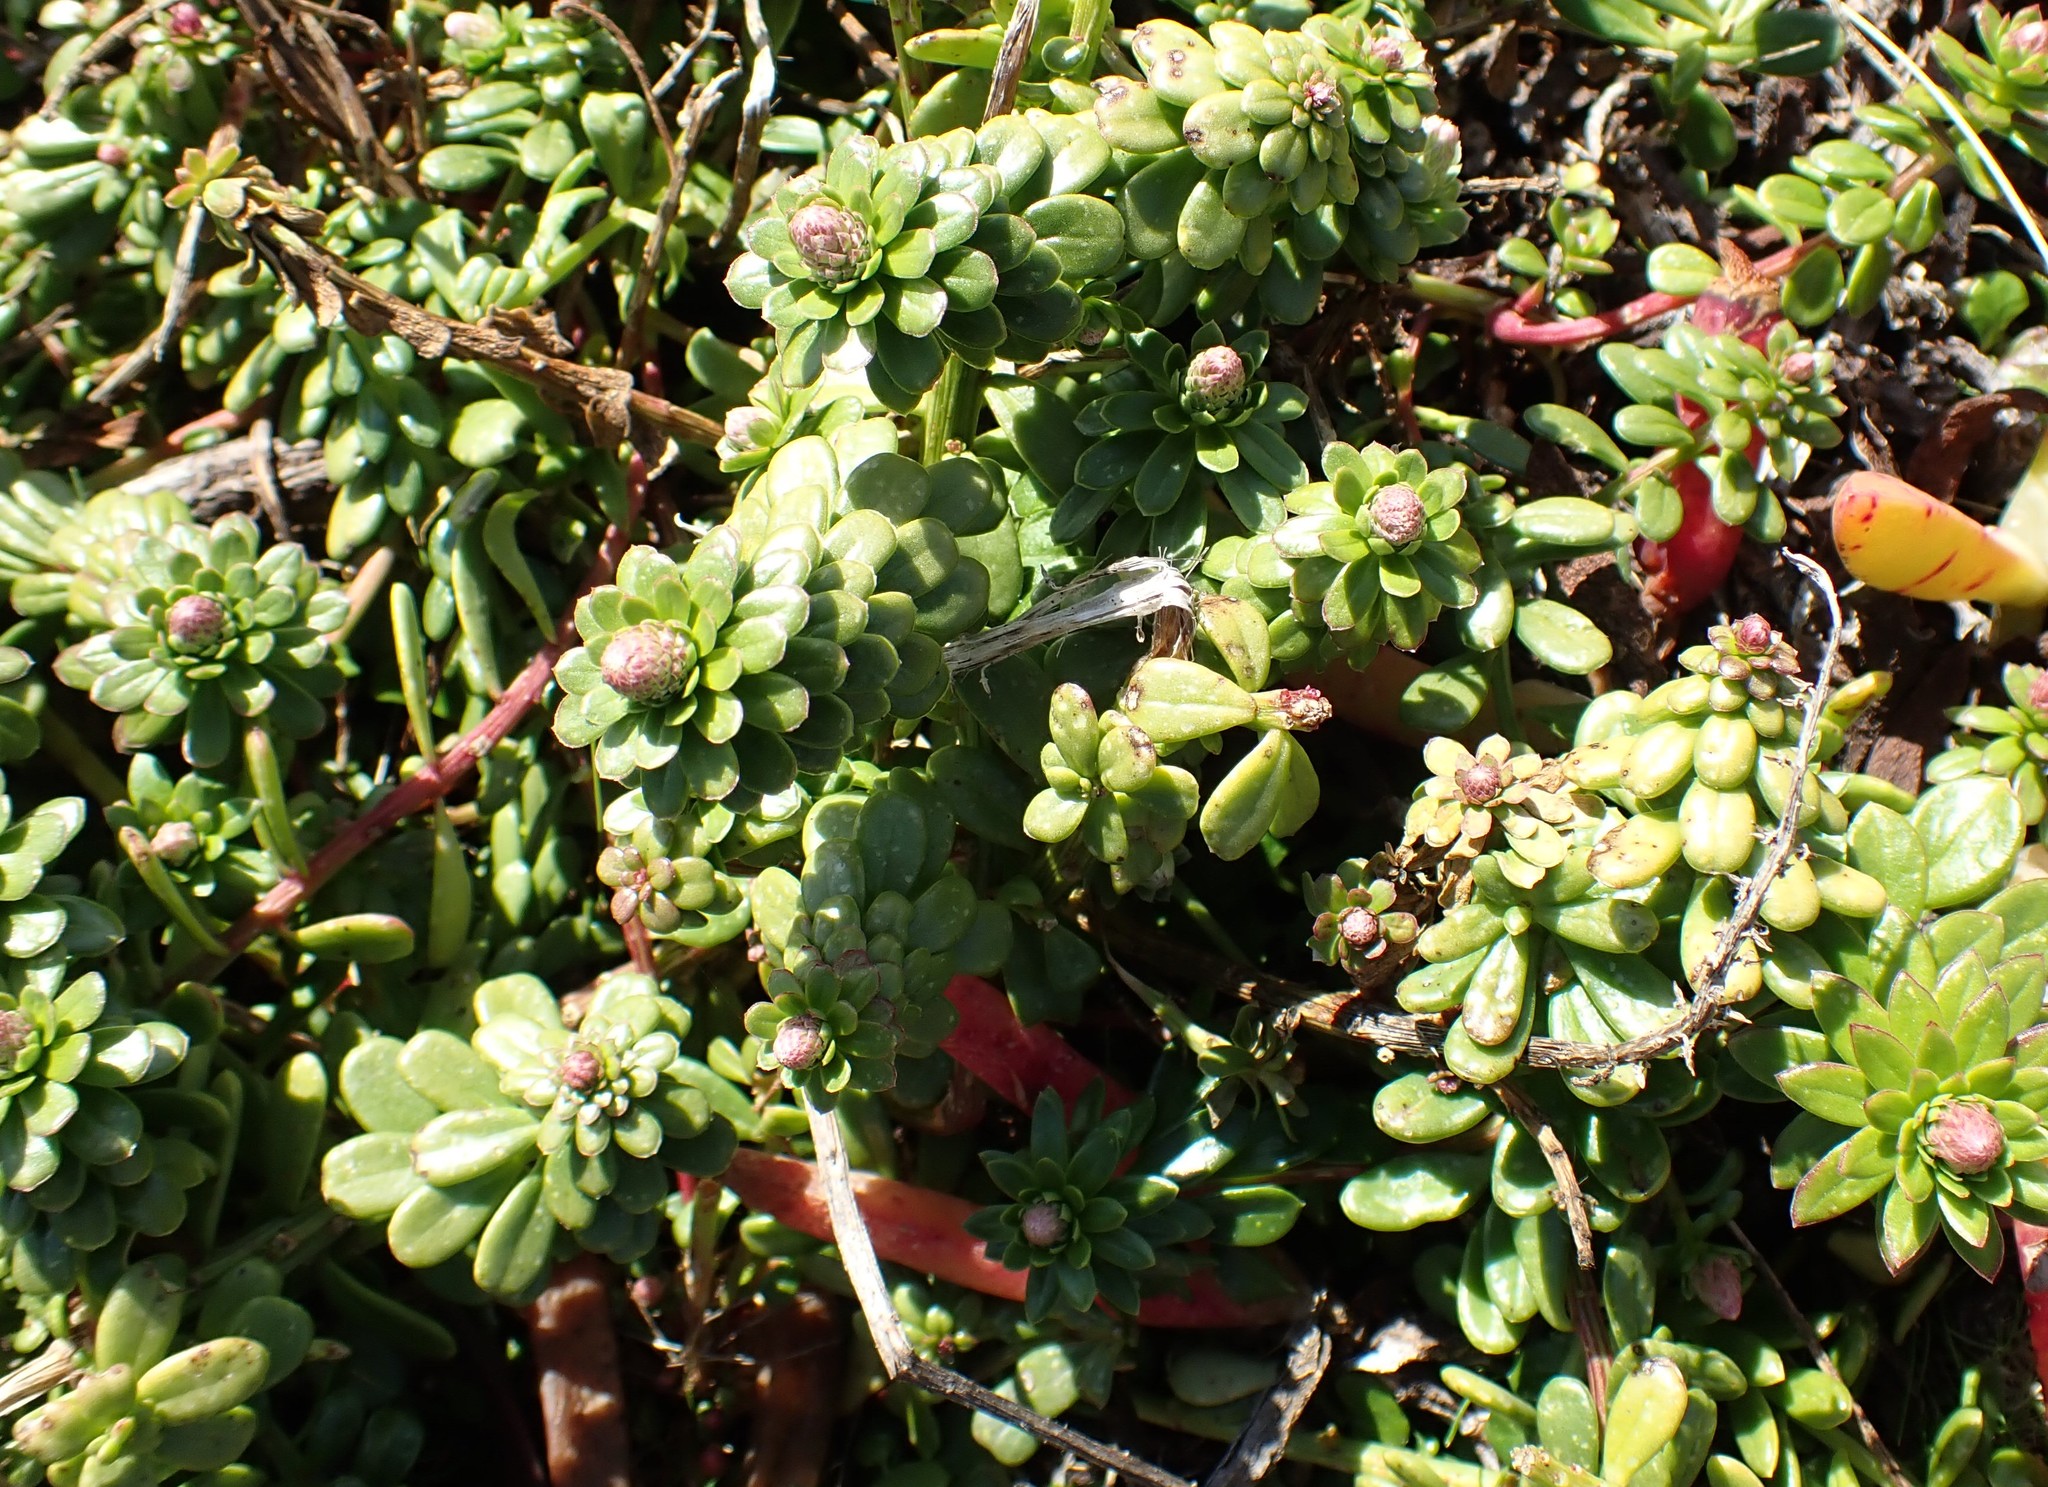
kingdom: Plantae
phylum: Tracheophyta
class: Magnoliopsida
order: Celastrales
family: Celastraceae
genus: Stackhousia
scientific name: Stackhousia spathulata
